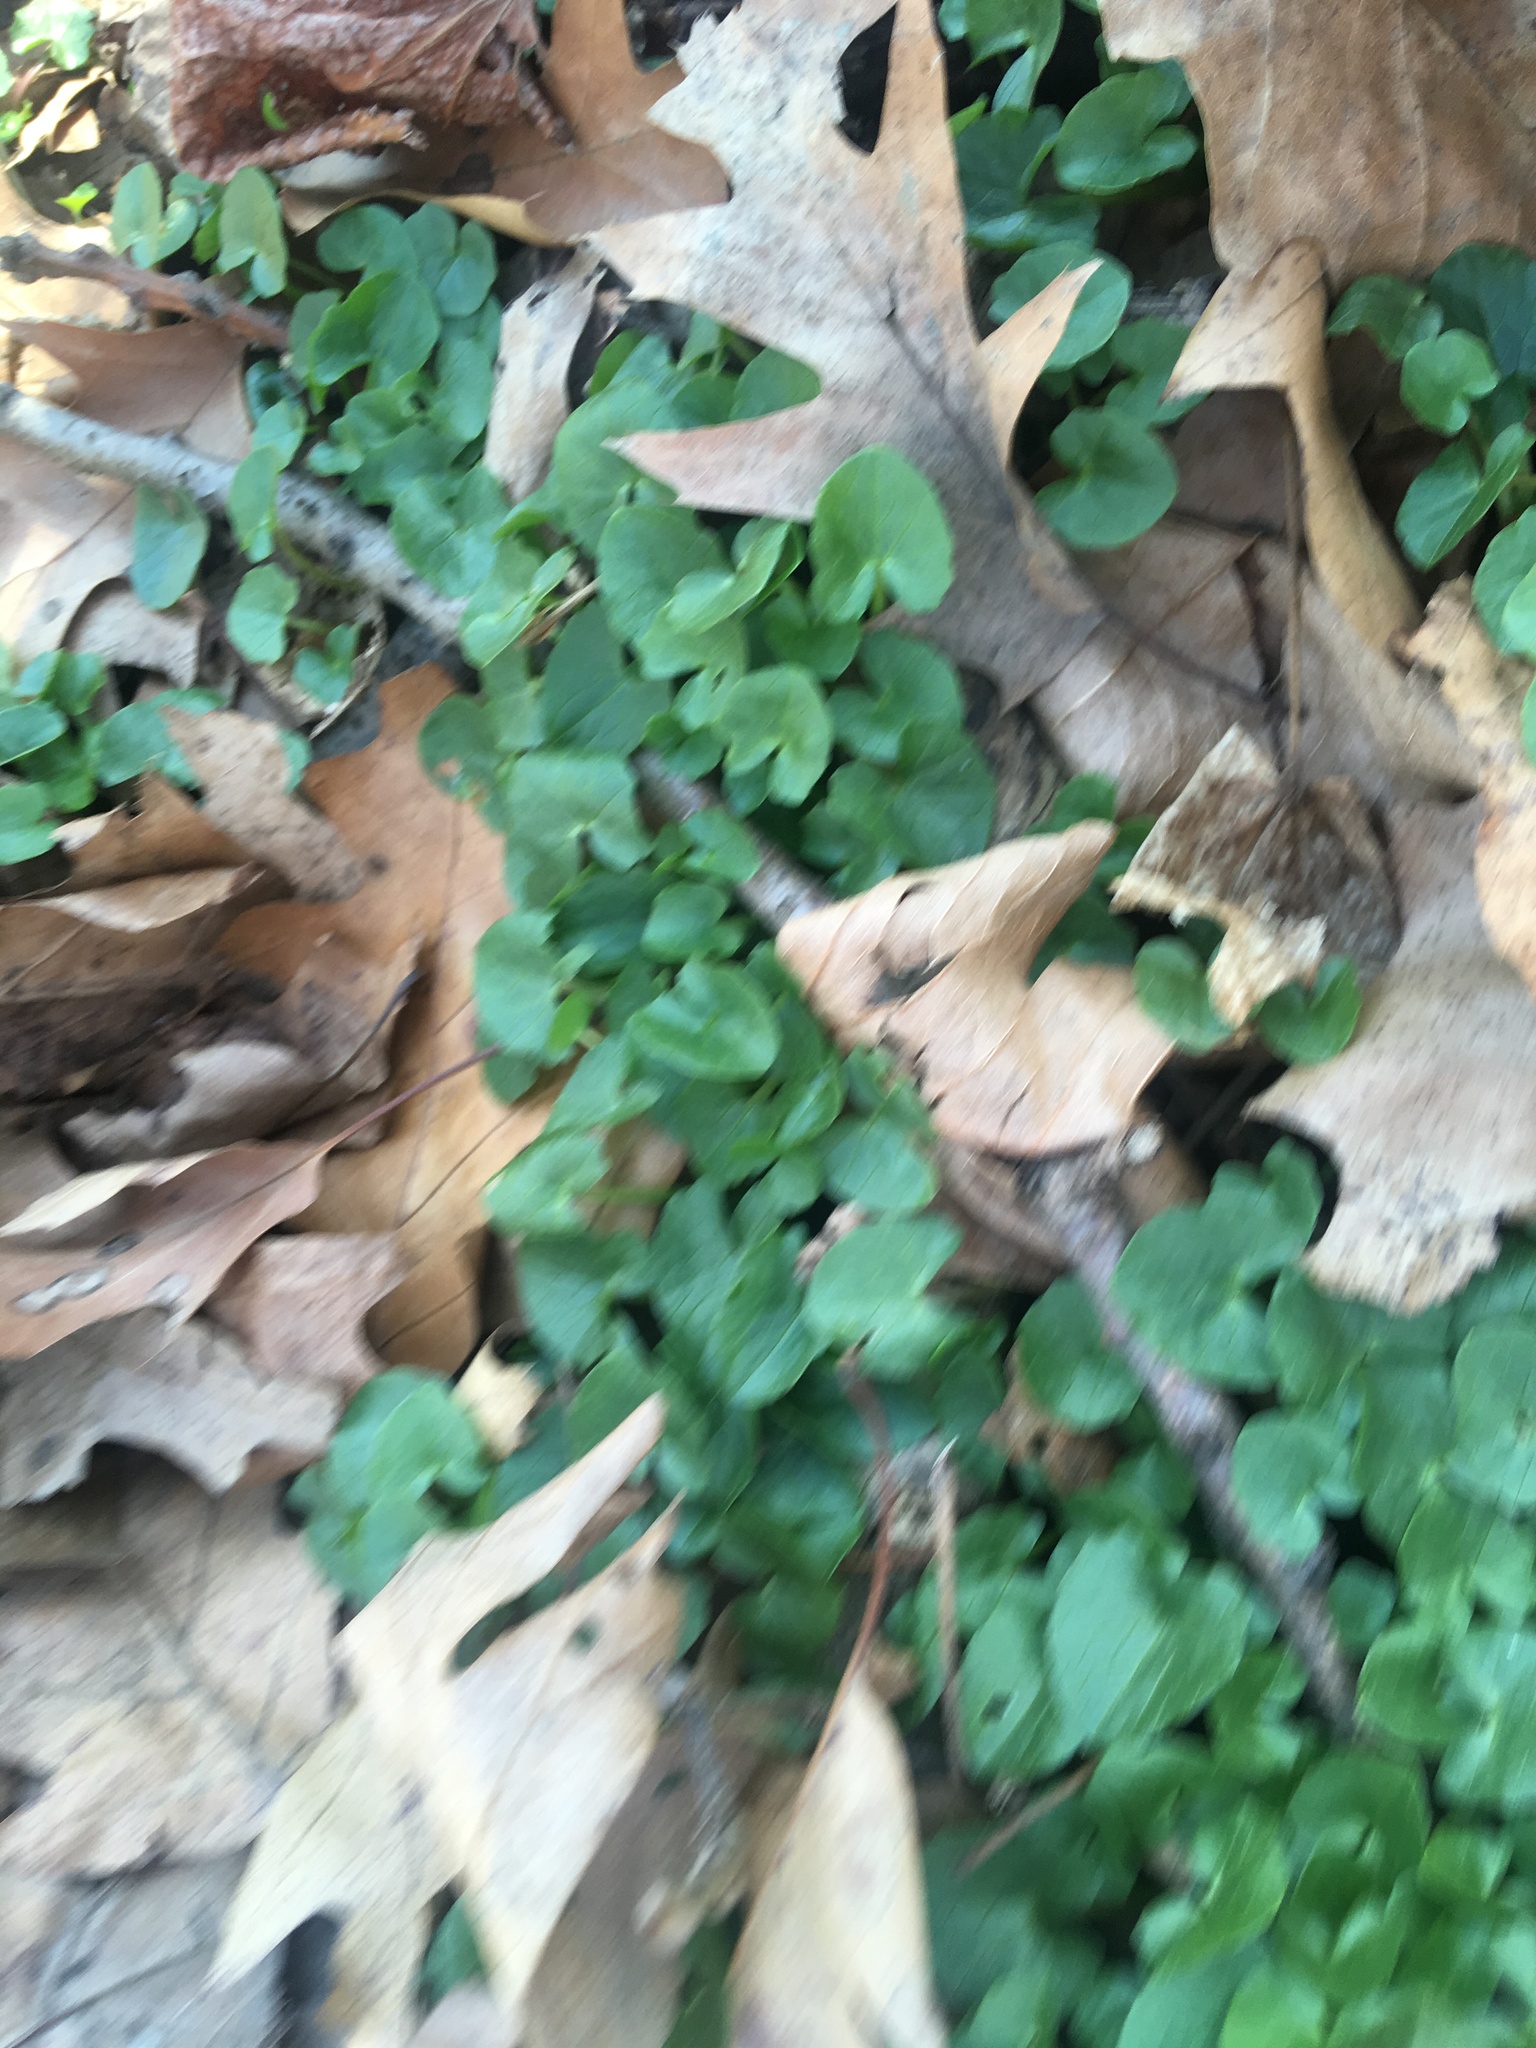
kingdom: Plantae
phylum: Tracheophyta
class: Magnoliopsida
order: Ranunculales
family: Ranunculaceae
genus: Ficaria
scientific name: Ficaria verna
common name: Lesser celandine
